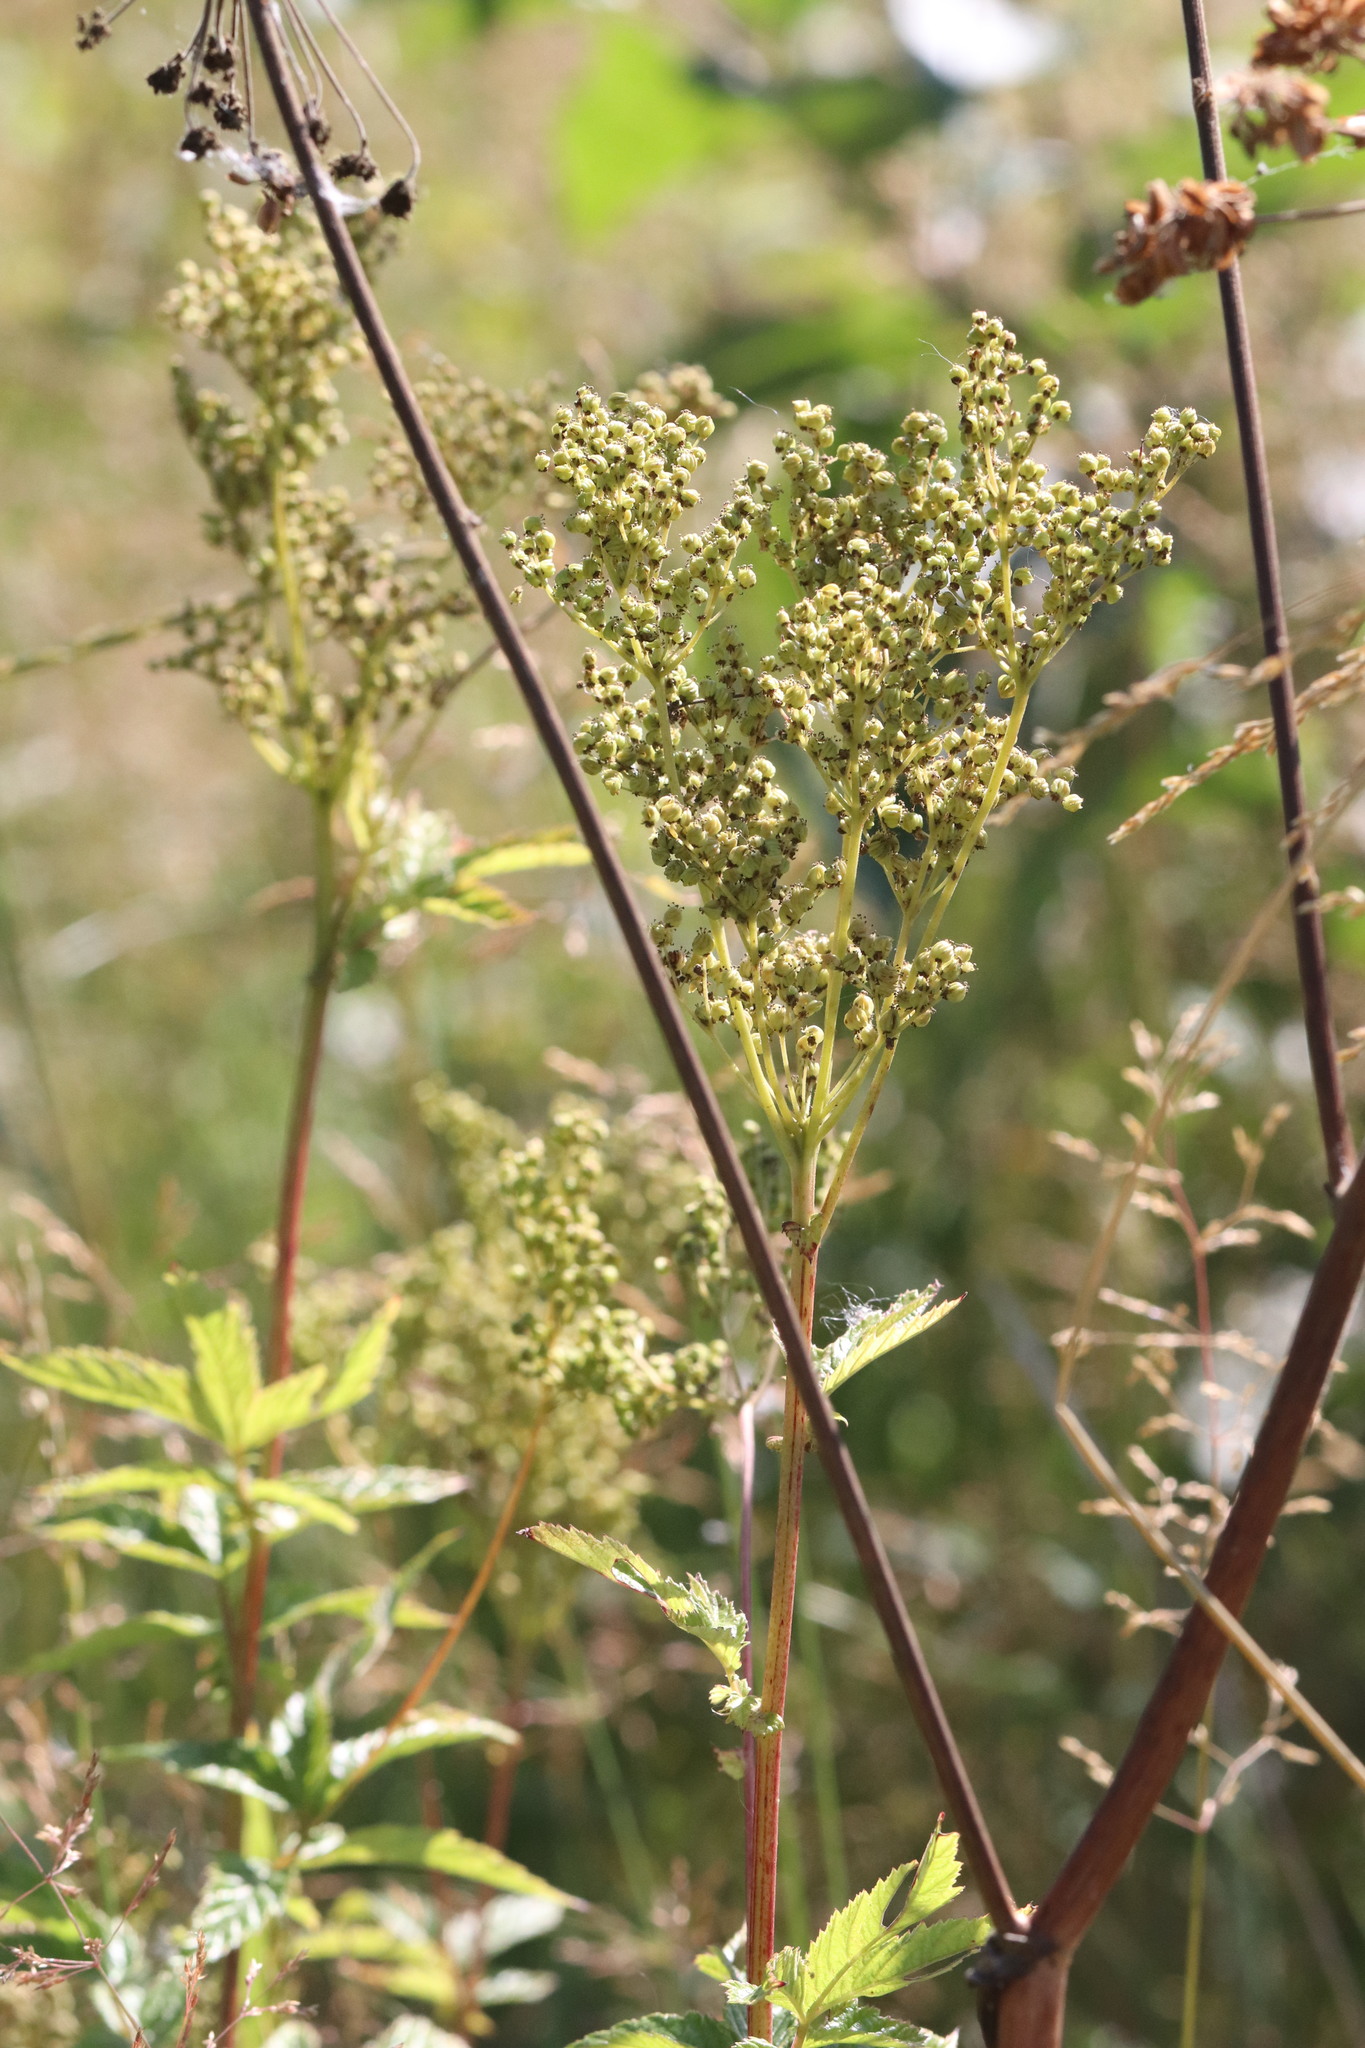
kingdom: Plantae
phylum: Tracheophyta
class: Magnoliopsida
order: Rosales
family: Rosaceae
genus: Filipendula
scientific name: Filipendula ulmaria
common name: Meadowsweet
